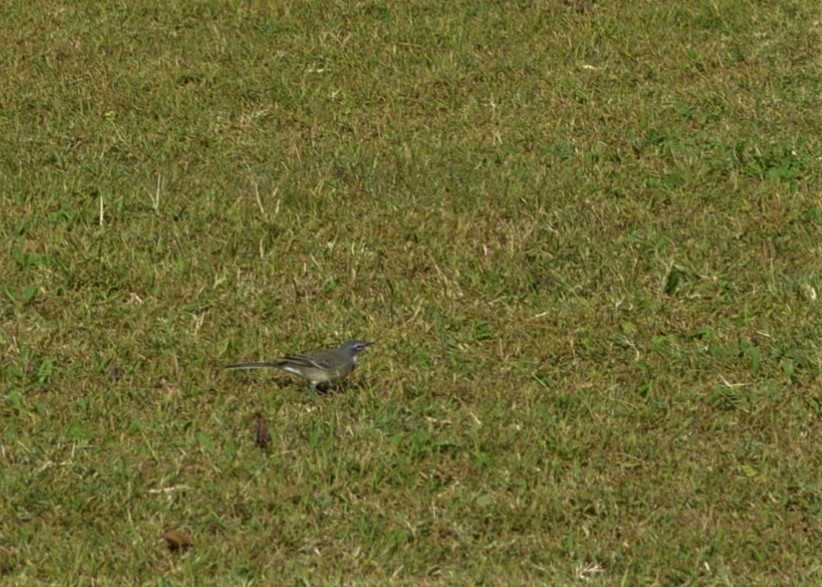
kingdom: Animalia
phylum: Chordata
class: Aves
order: Passeriformes
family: Motacillidae
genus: Motacilla
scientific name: Motacilla capensis
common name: Cape wagtail
